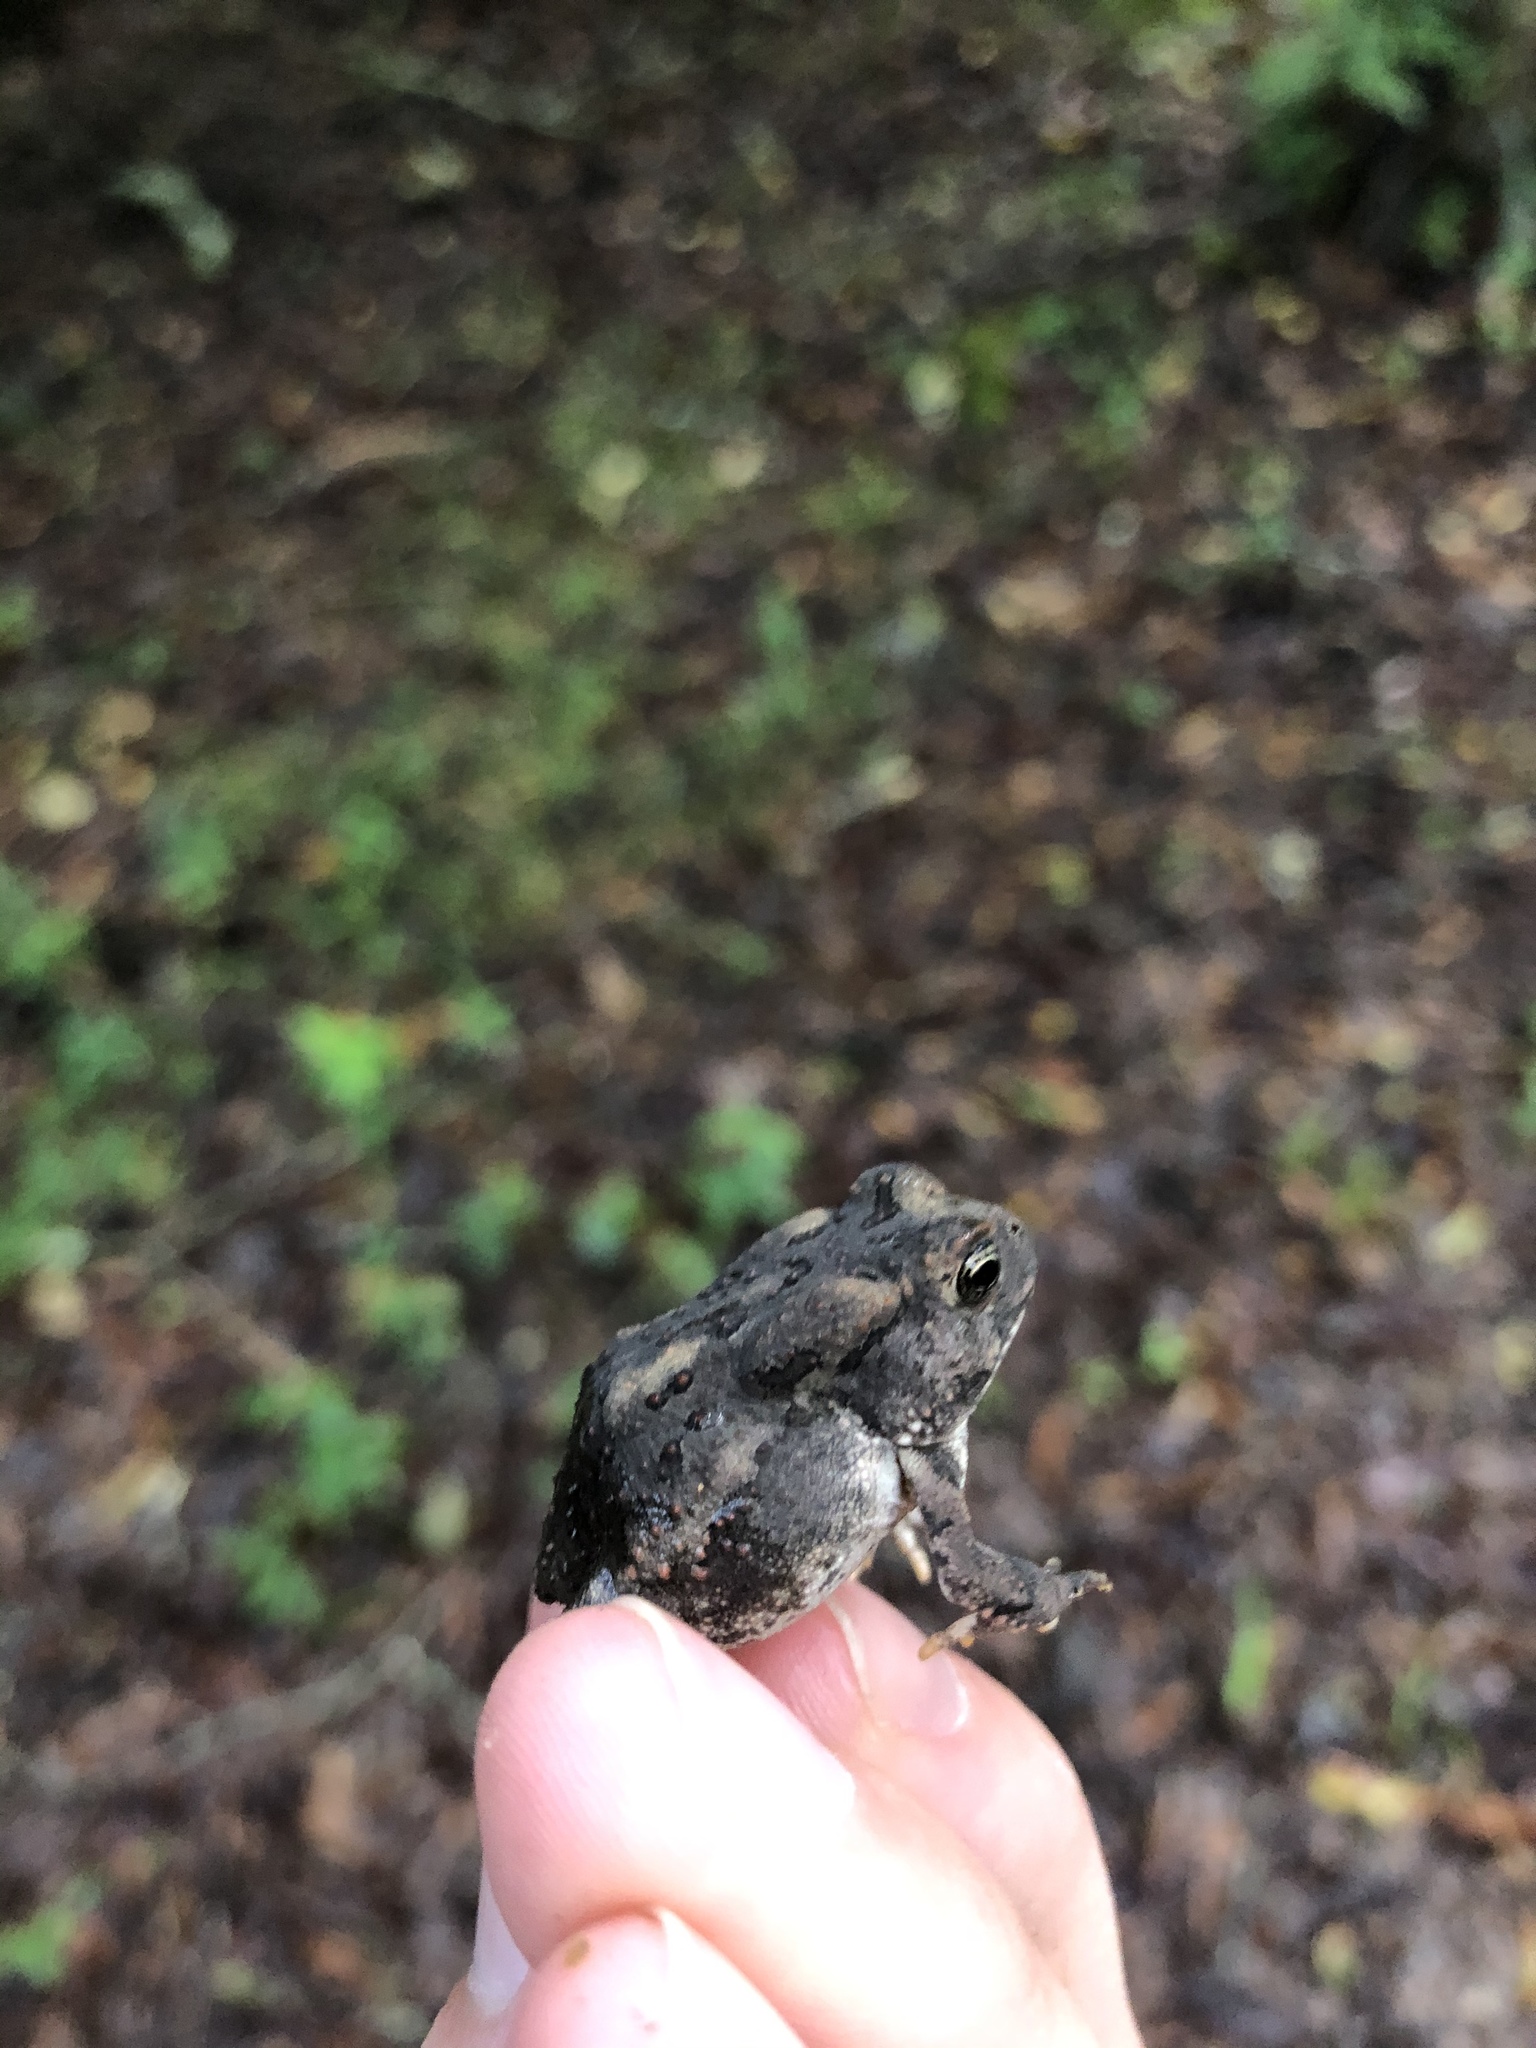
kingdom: Animalia
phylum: Chordata
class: Amphibia
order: Anura
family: Bufonidae
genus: Anaxyrus
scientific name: Anaxyrus fowleri
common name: Fowler's toad
